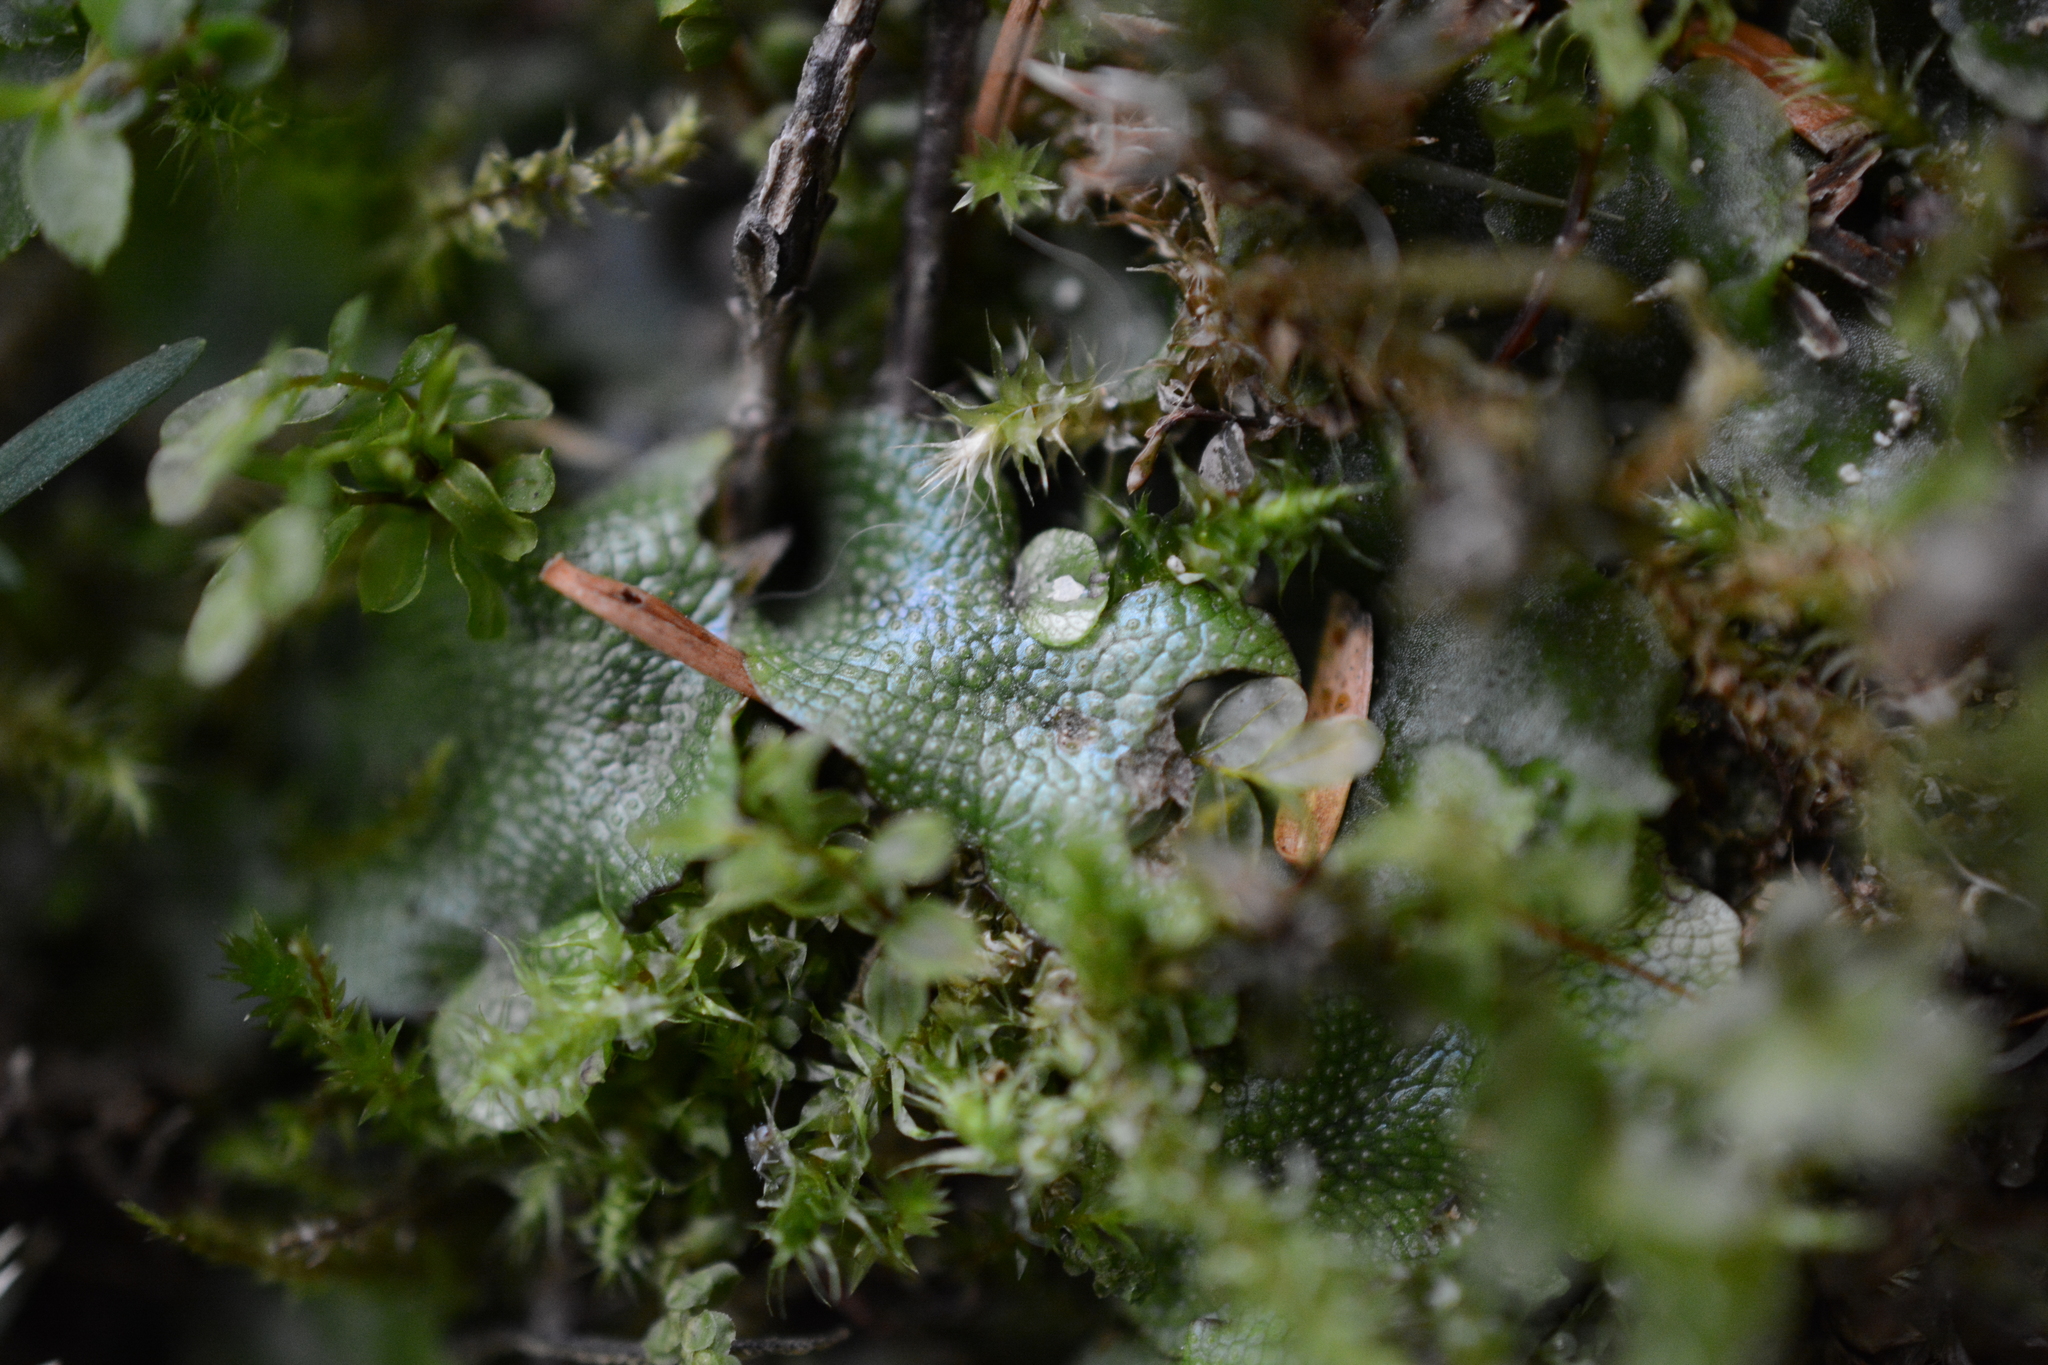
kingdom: Plantae
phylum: Marchantiophyta
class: Marchantiopsida
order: Marchantiales
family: Conocephalaceae
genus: Conocephalum
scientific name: Conocephalum salebrosum
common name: Cat-tongue liverwort
